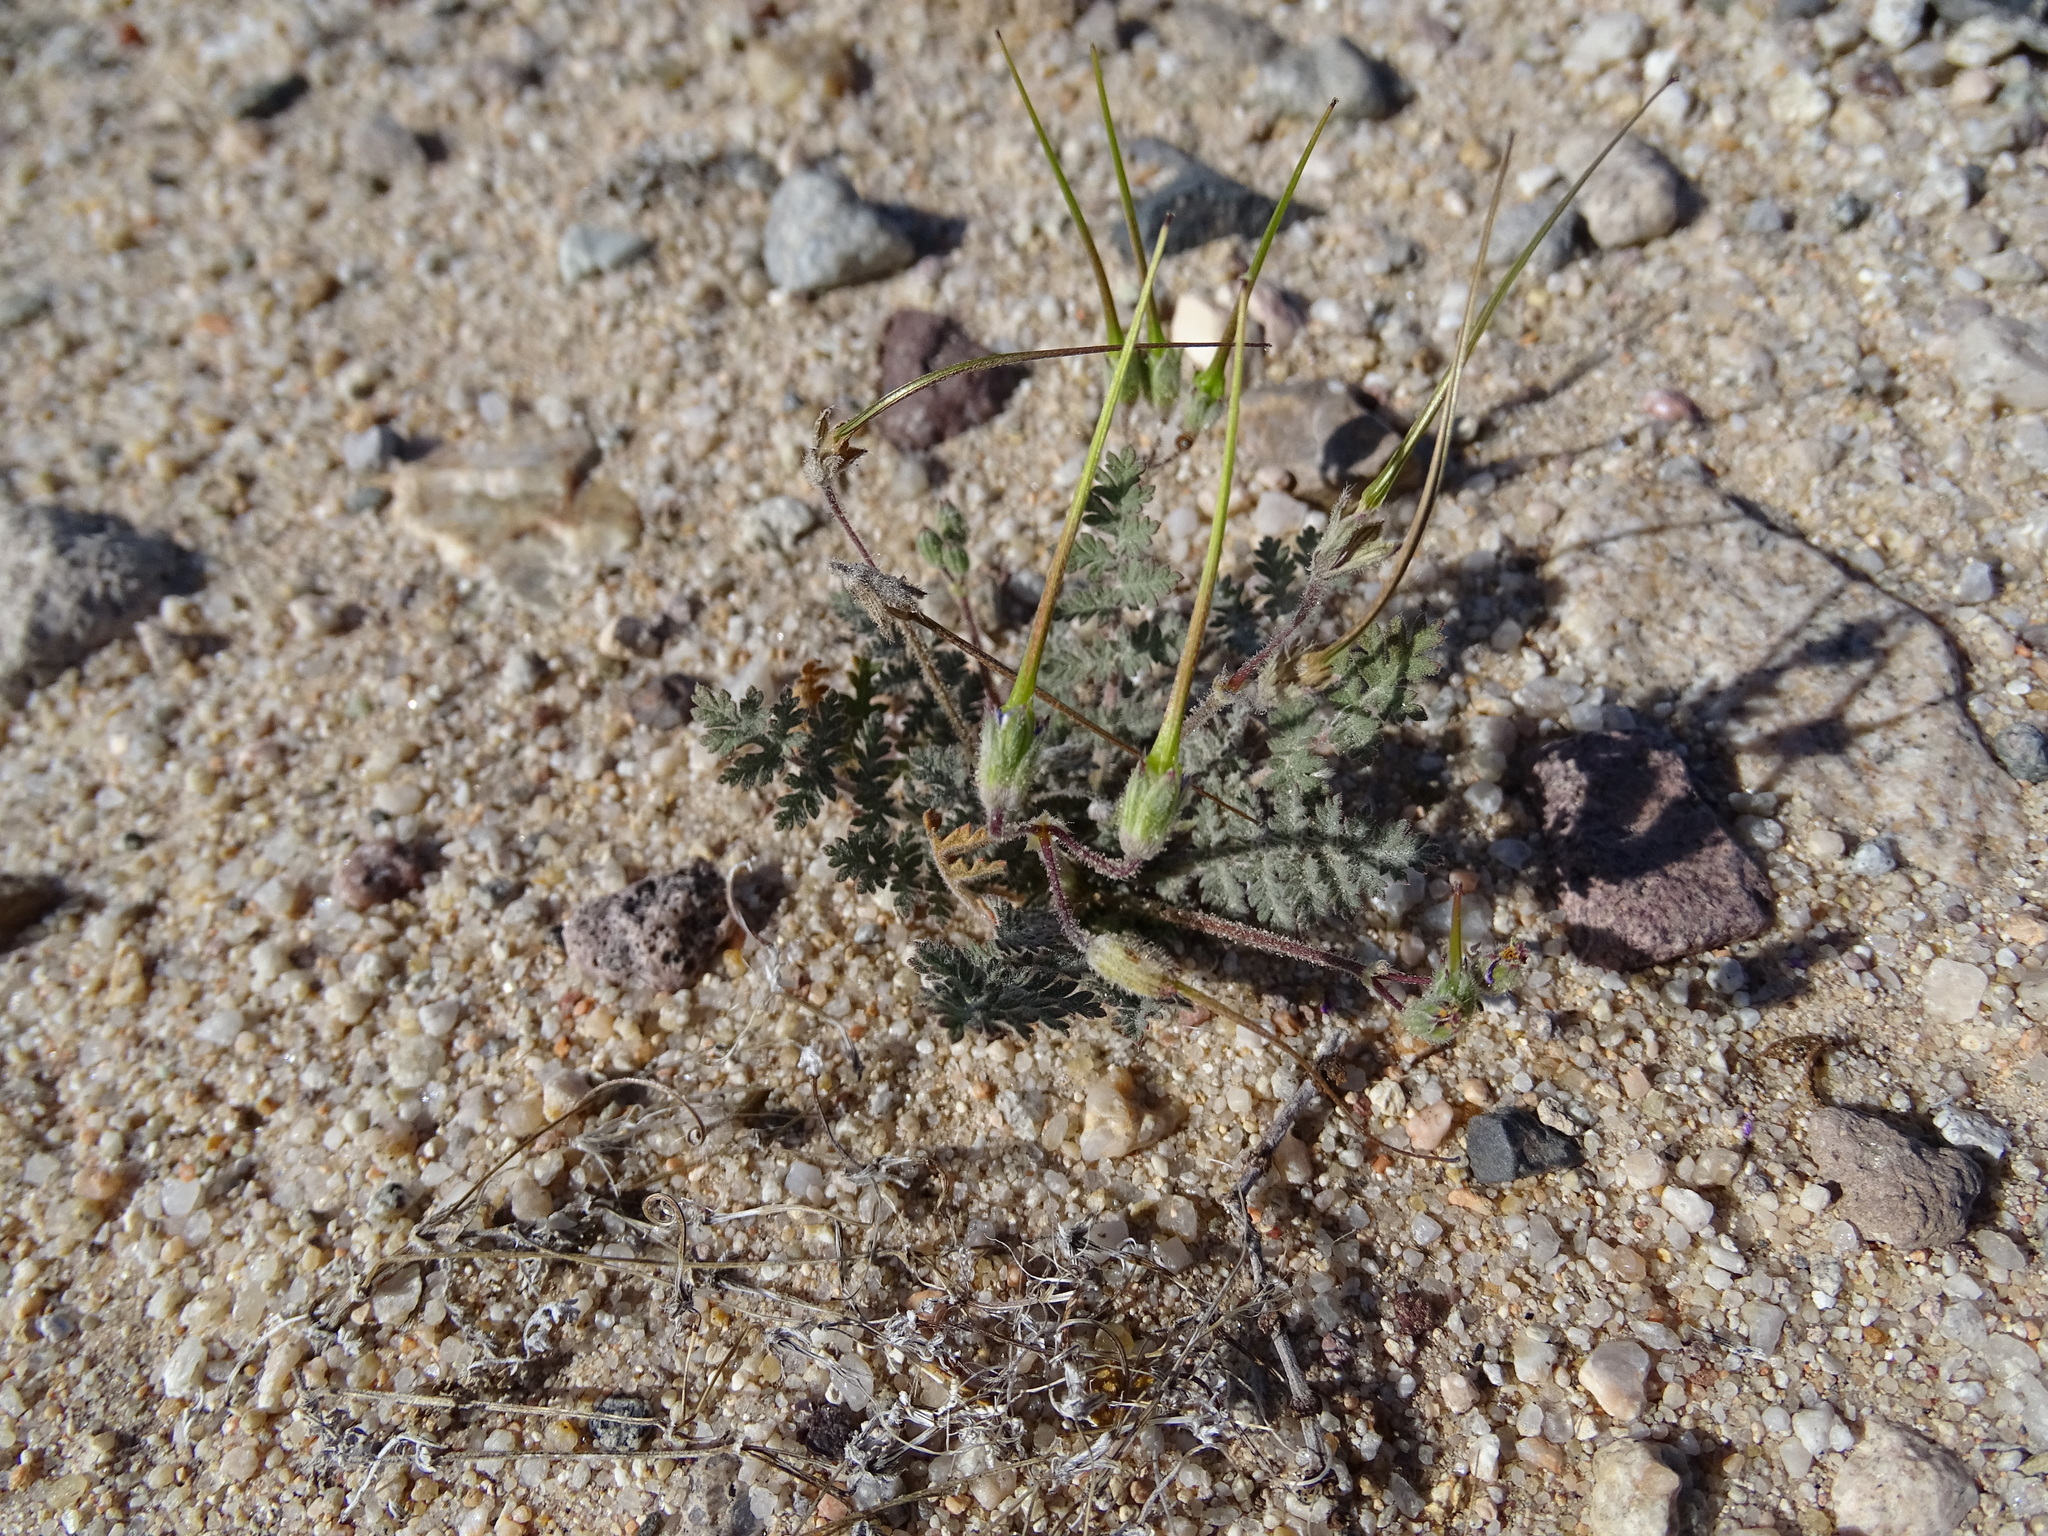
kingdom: Plantae
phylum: Tracheophyta
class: Magnoliopsida
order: Geraniales
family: Geraniaceae
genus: Erodium
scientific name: Erodium cicutarium
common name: Common stork's-bill
